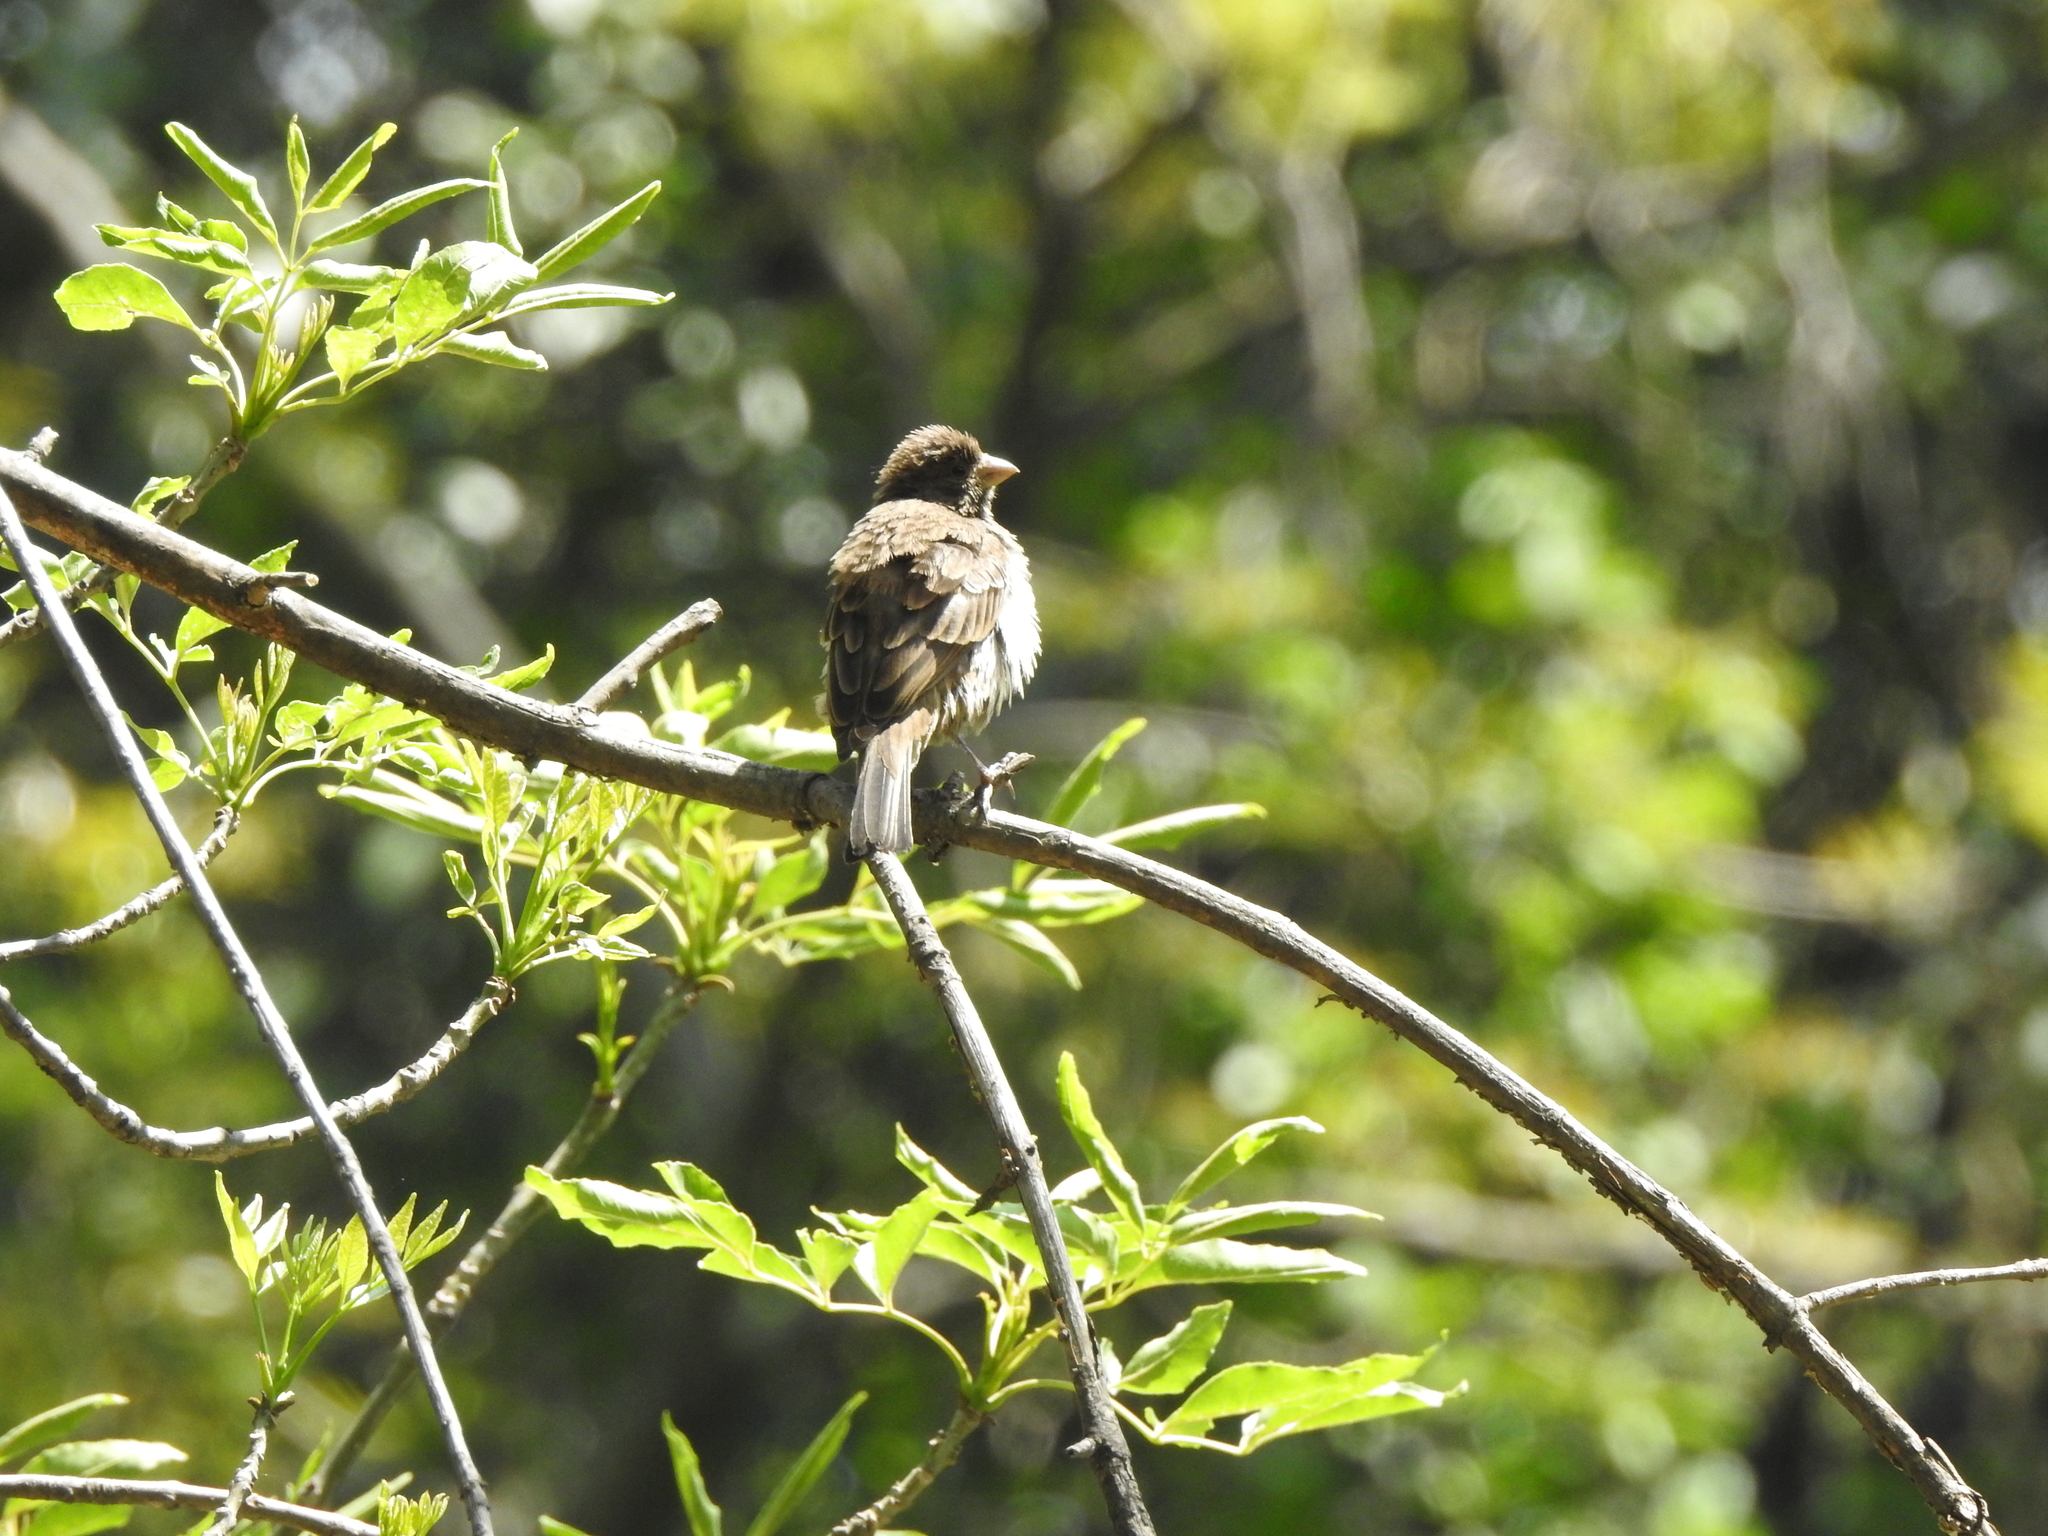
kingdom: Animalia
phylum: Chordata
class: Aves
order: Passeriformes
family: Fringillidae
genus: Haemorhous
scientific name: Haemorhous mexicanus
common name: House finch
